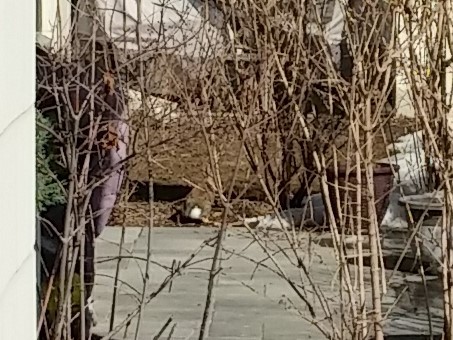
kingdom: Animalia
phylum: Chordata
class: Mammalia
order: Lagomorpha
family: Leporidae
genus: Sylvilagus
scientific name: Sylvilagus floridanus
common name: Eastern cottontail
